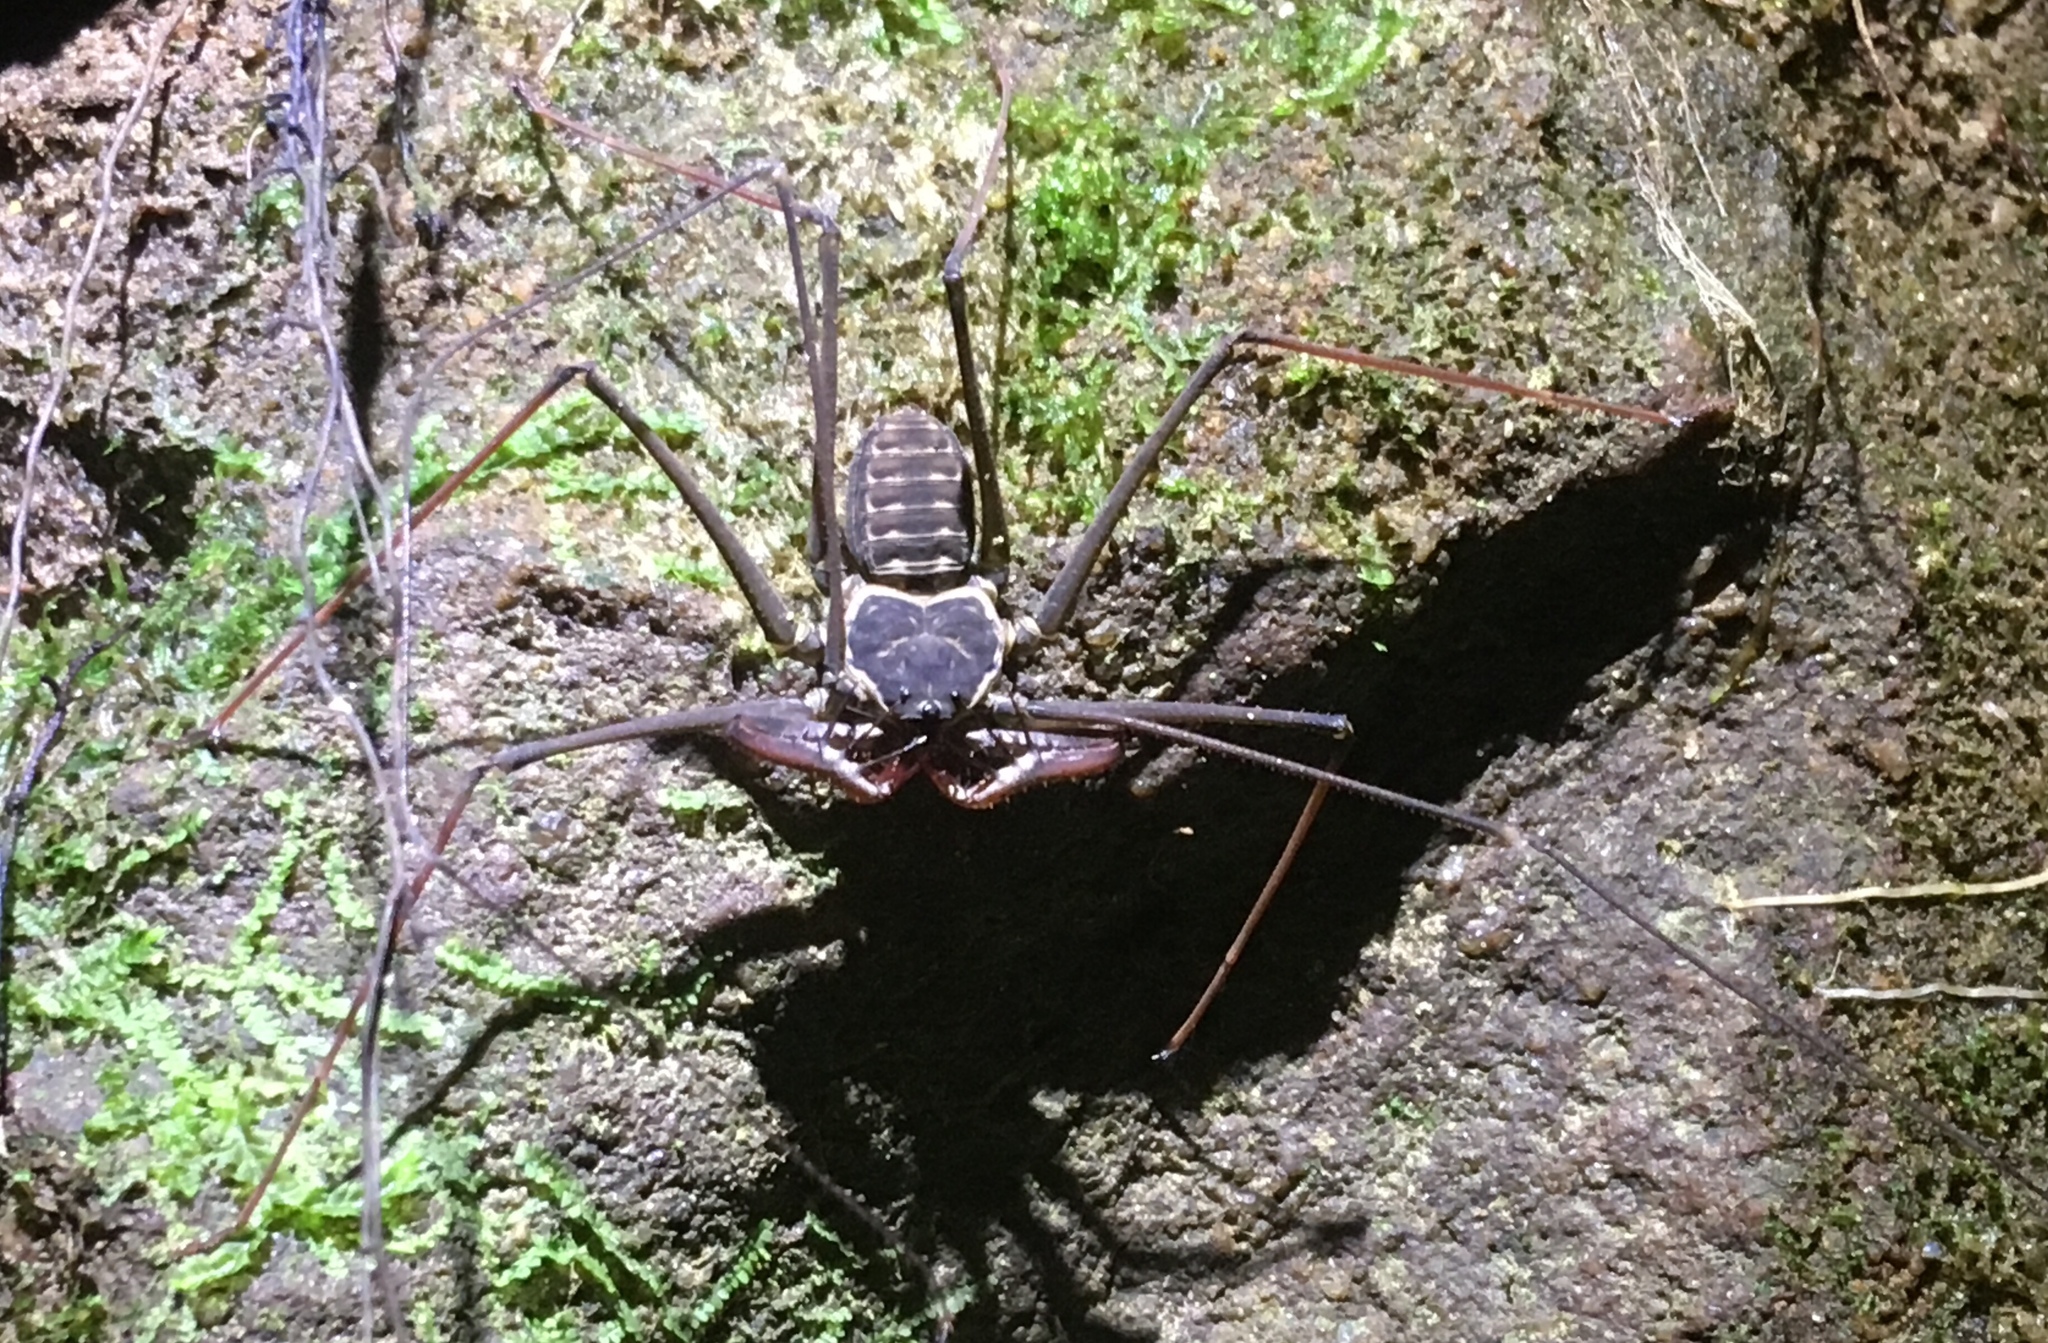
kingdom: Animalia
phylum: Arthropoda
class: Arachnida
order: Amblypygi
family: Phrynidae
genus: Heterophrynus
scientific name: Heterophrynus batesii
